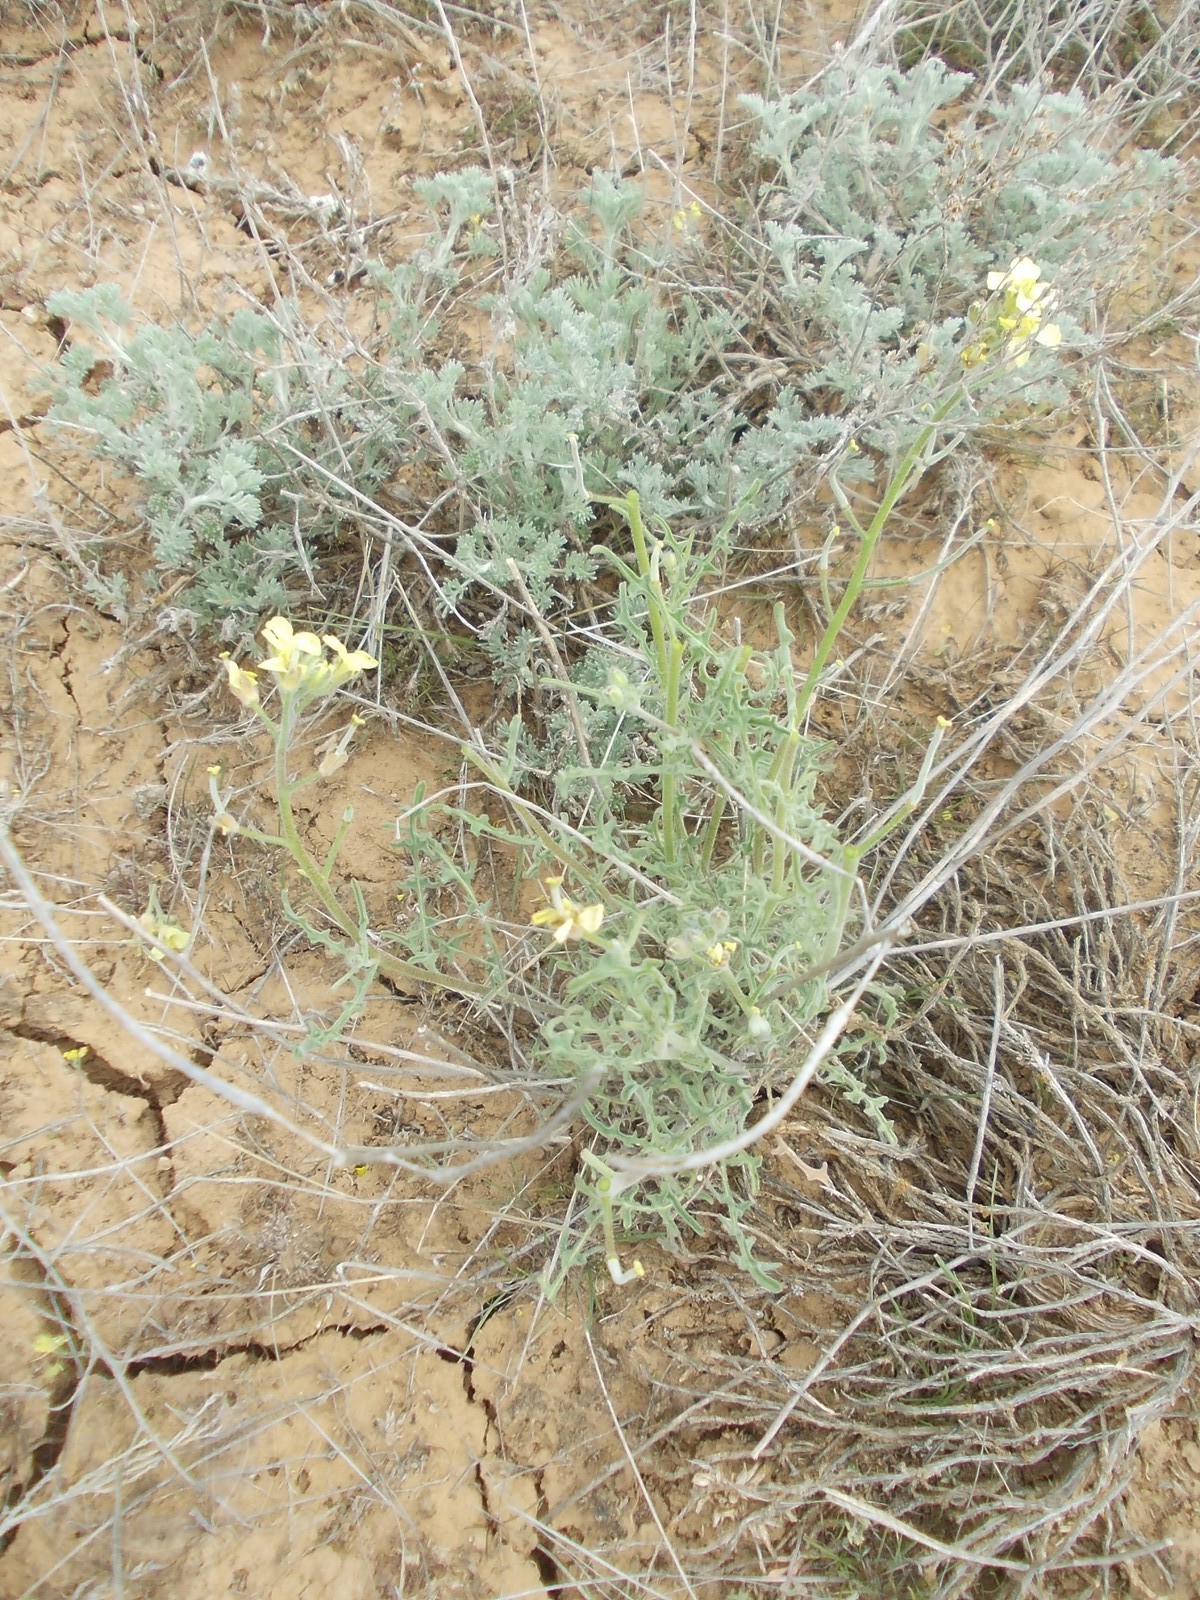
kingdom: Plantae
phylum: Tracheophyta
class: Magnoliopsida
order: Brassicales
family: Brassicaceae
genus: Sterigmostemum
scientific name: Sterigmostemum caspicum
